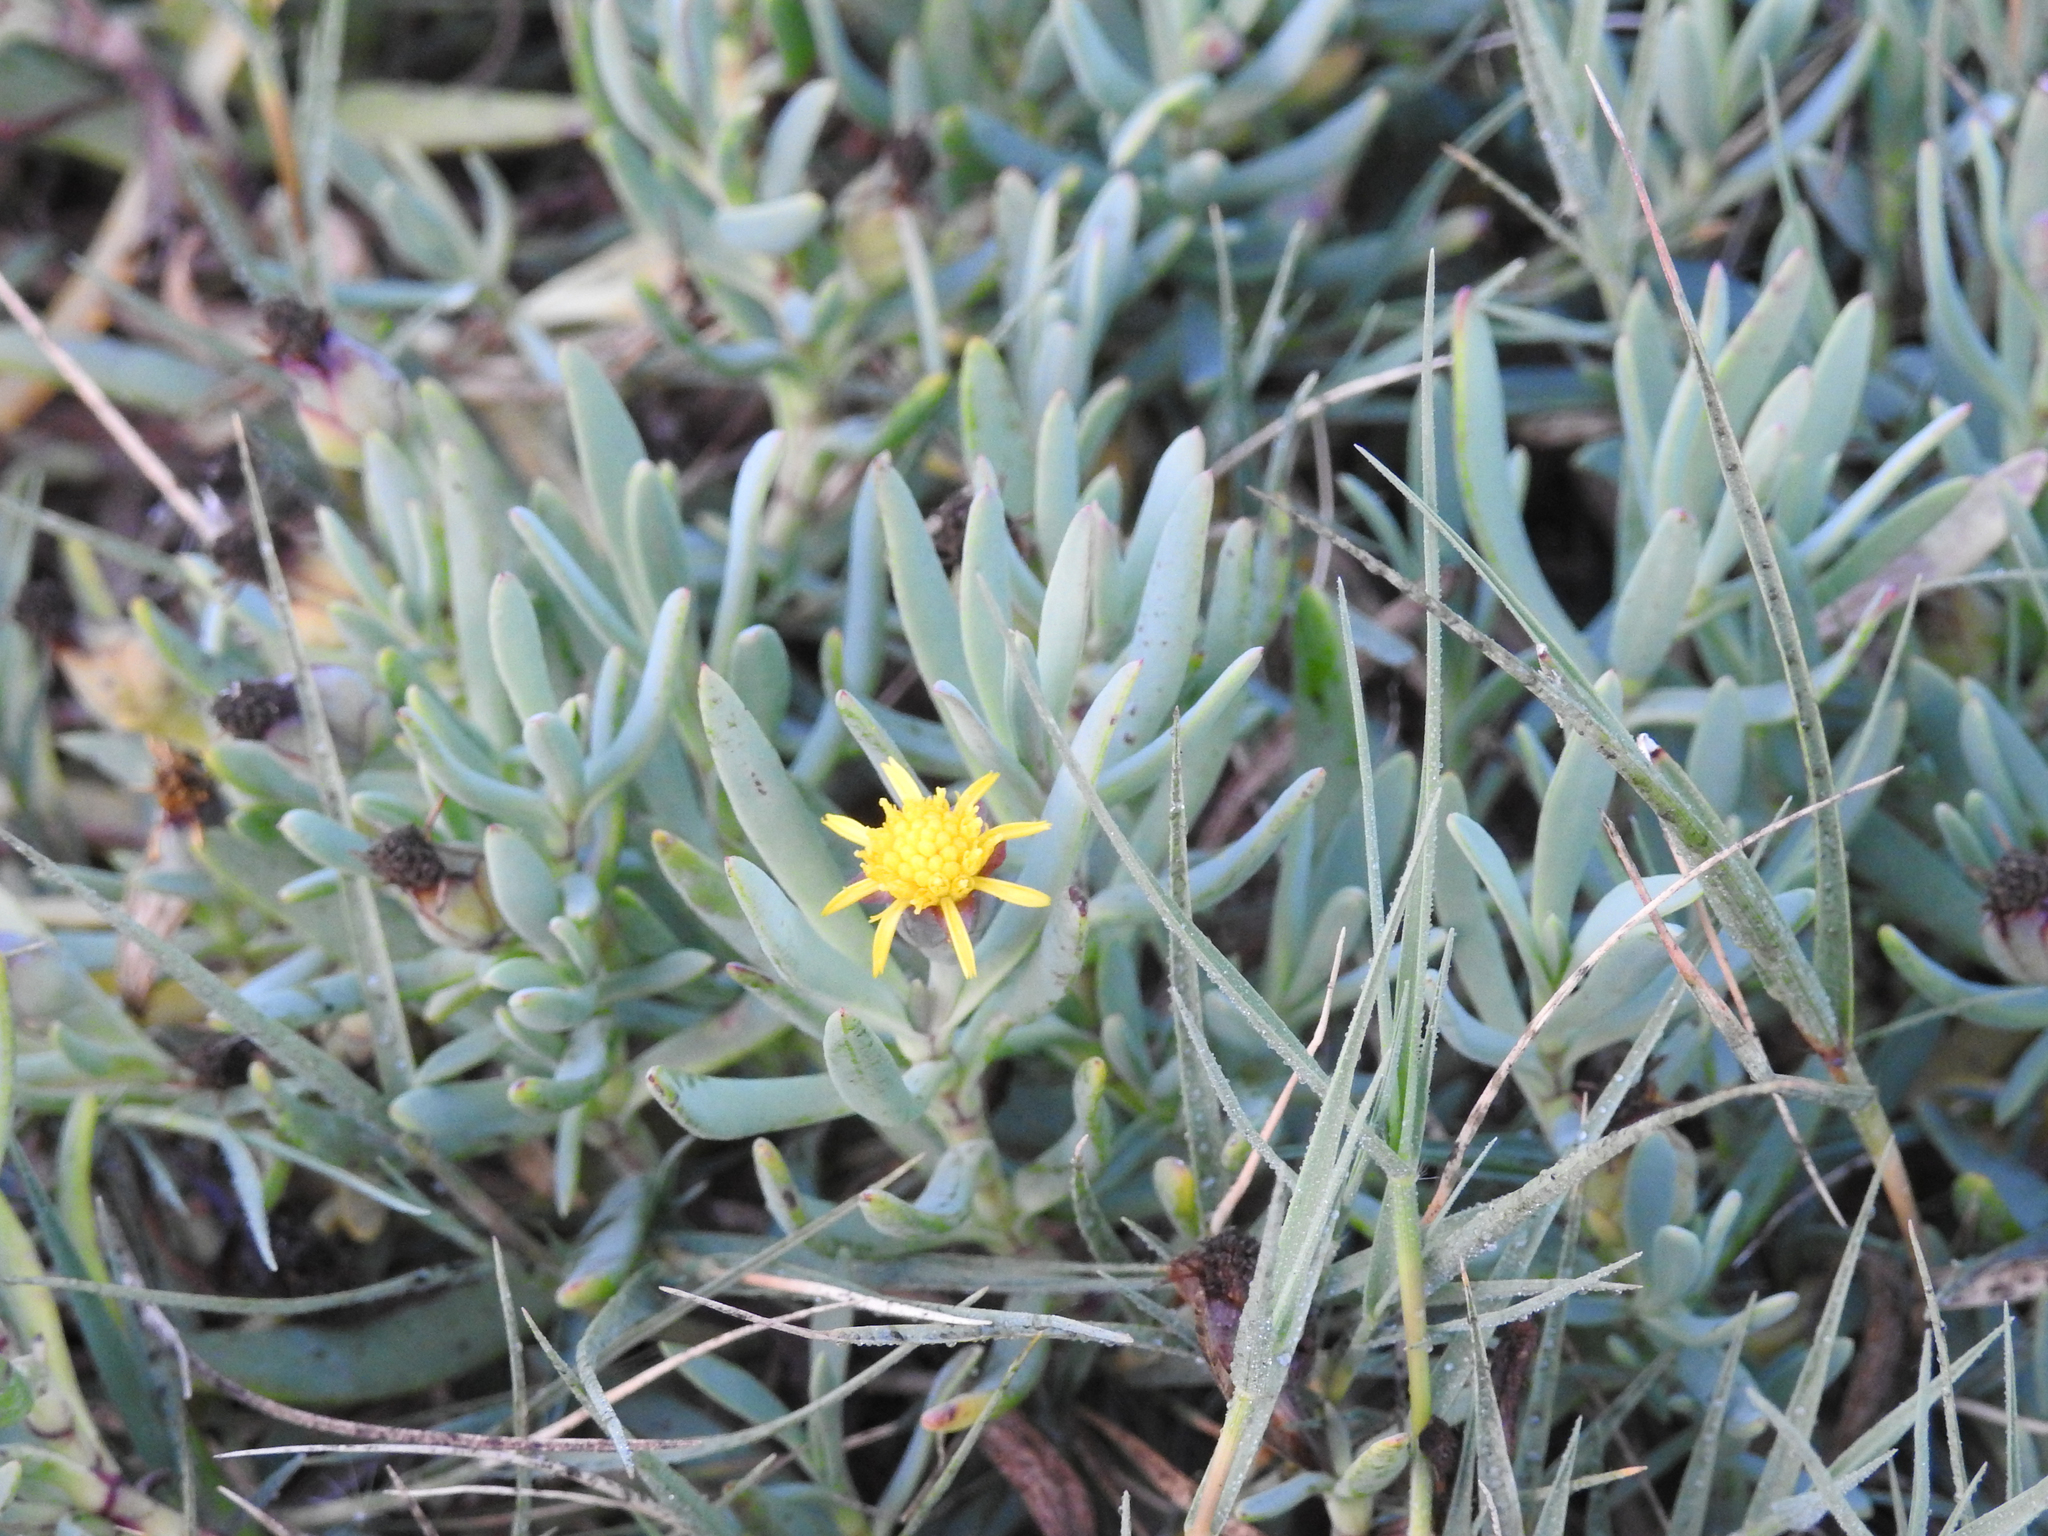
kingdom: Plantae
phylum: Tracheophyta
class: Magnoliopsida
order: Asterales
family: Asteraceae
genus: Jaumea
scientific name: Jaumea carnosa
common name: Fleshy jaumea
